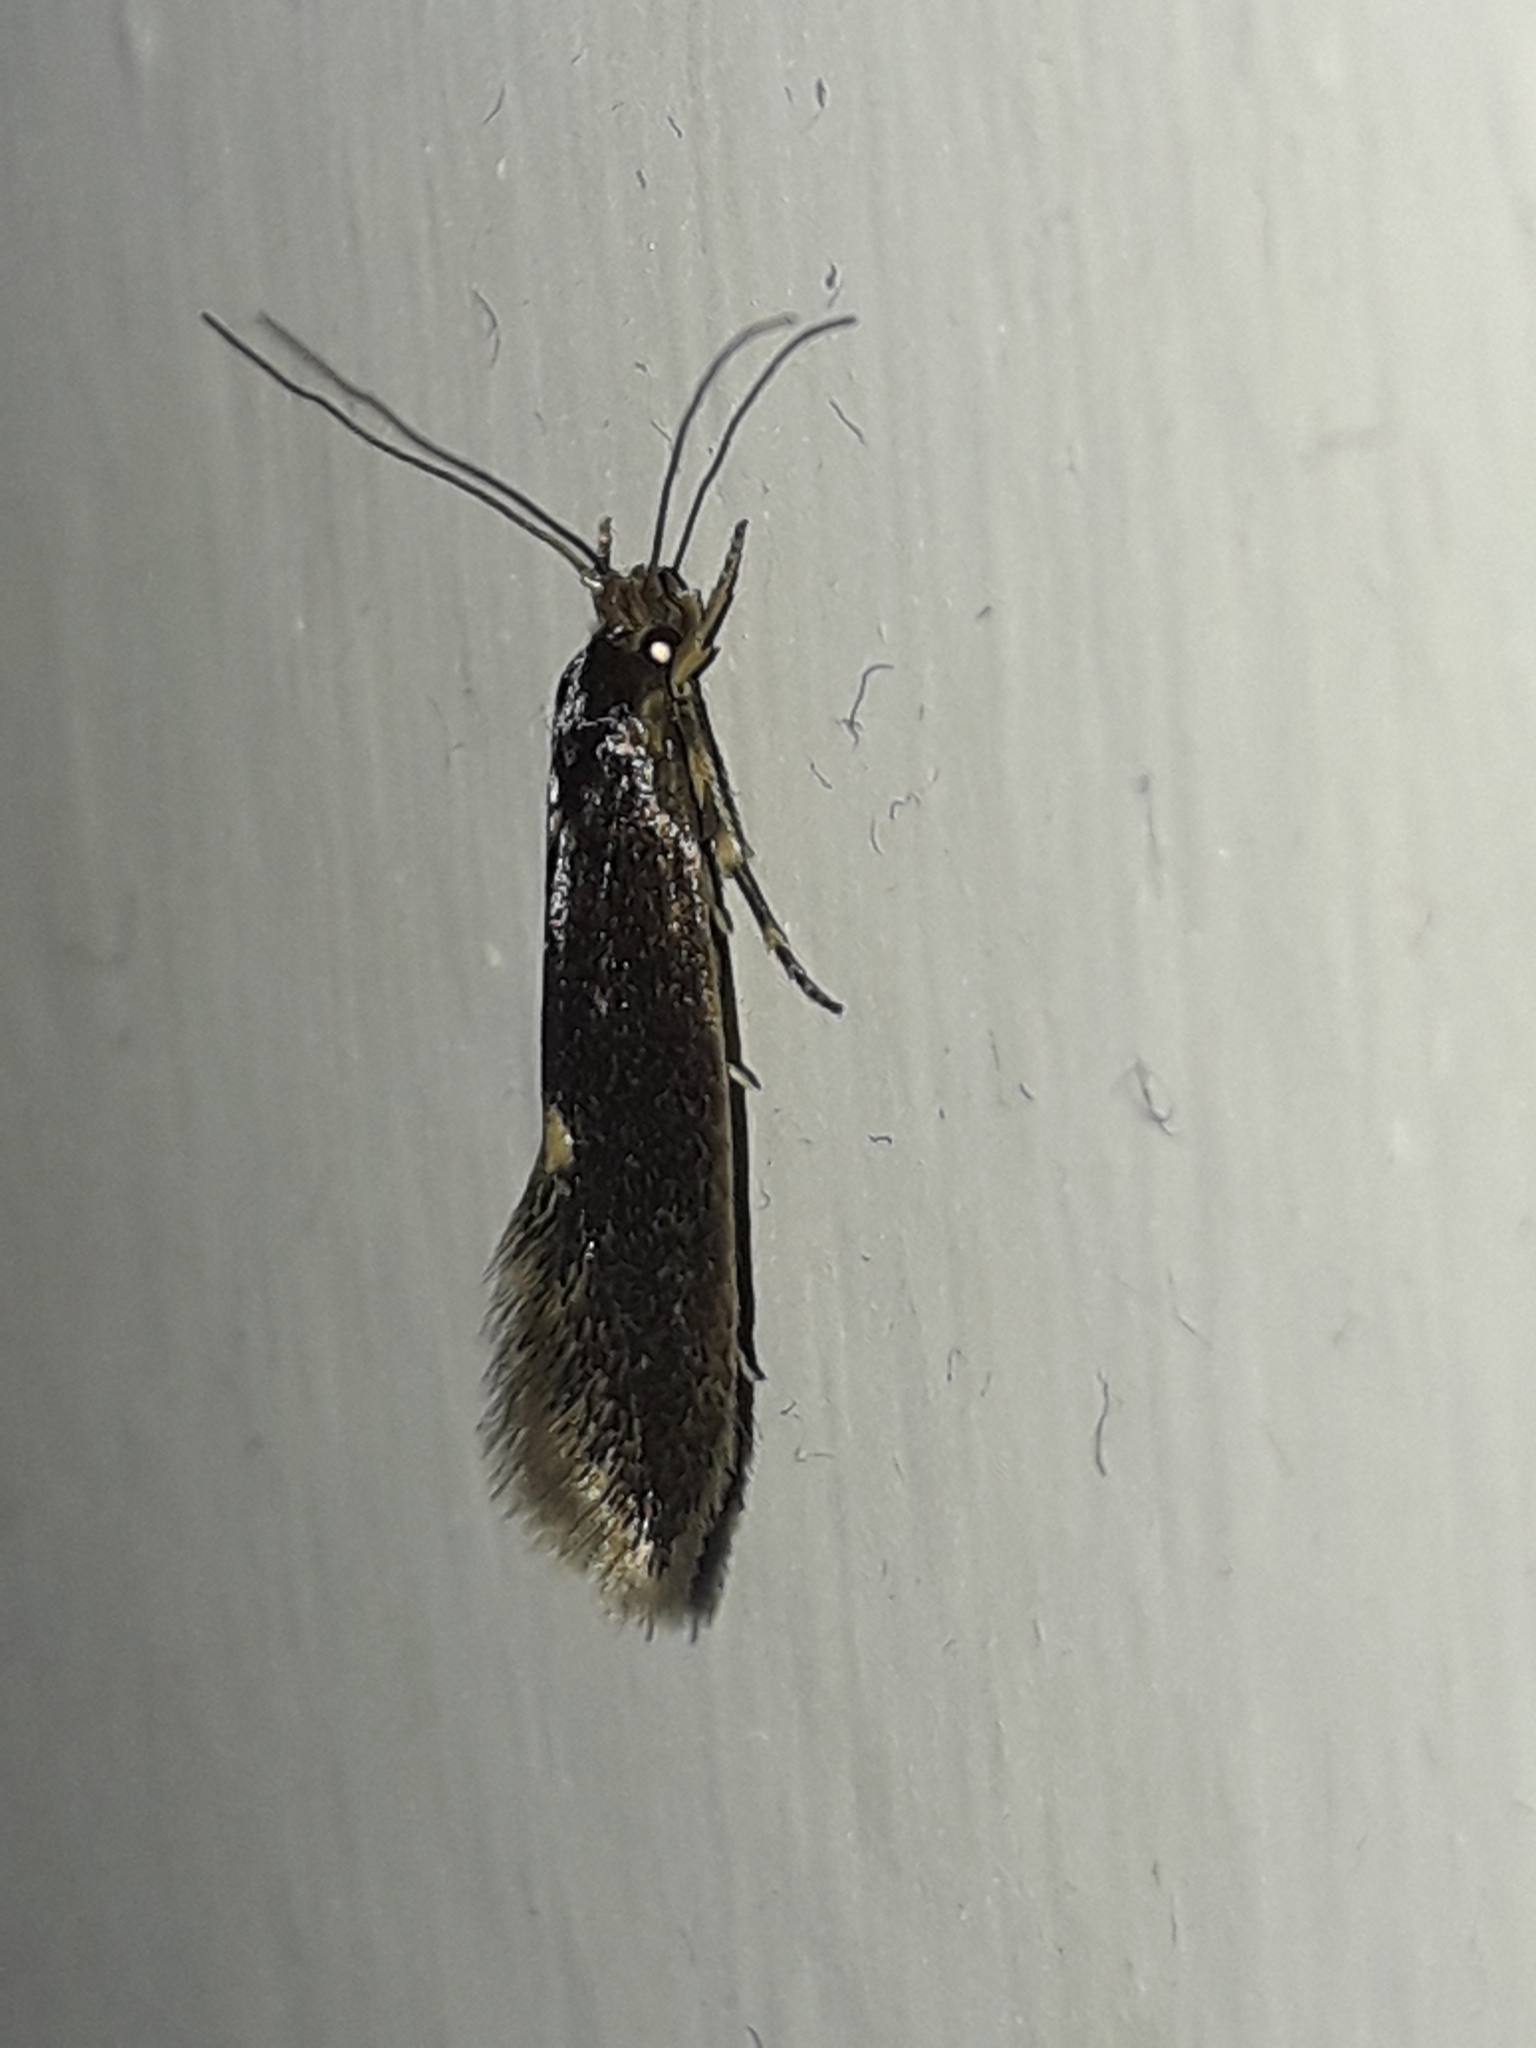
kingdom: Animalia
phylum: Arthropoda
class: Insecta
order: Lepidoptera
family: Tineidae
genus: Opogona
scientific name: Opogona omoscopa
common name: Moth
